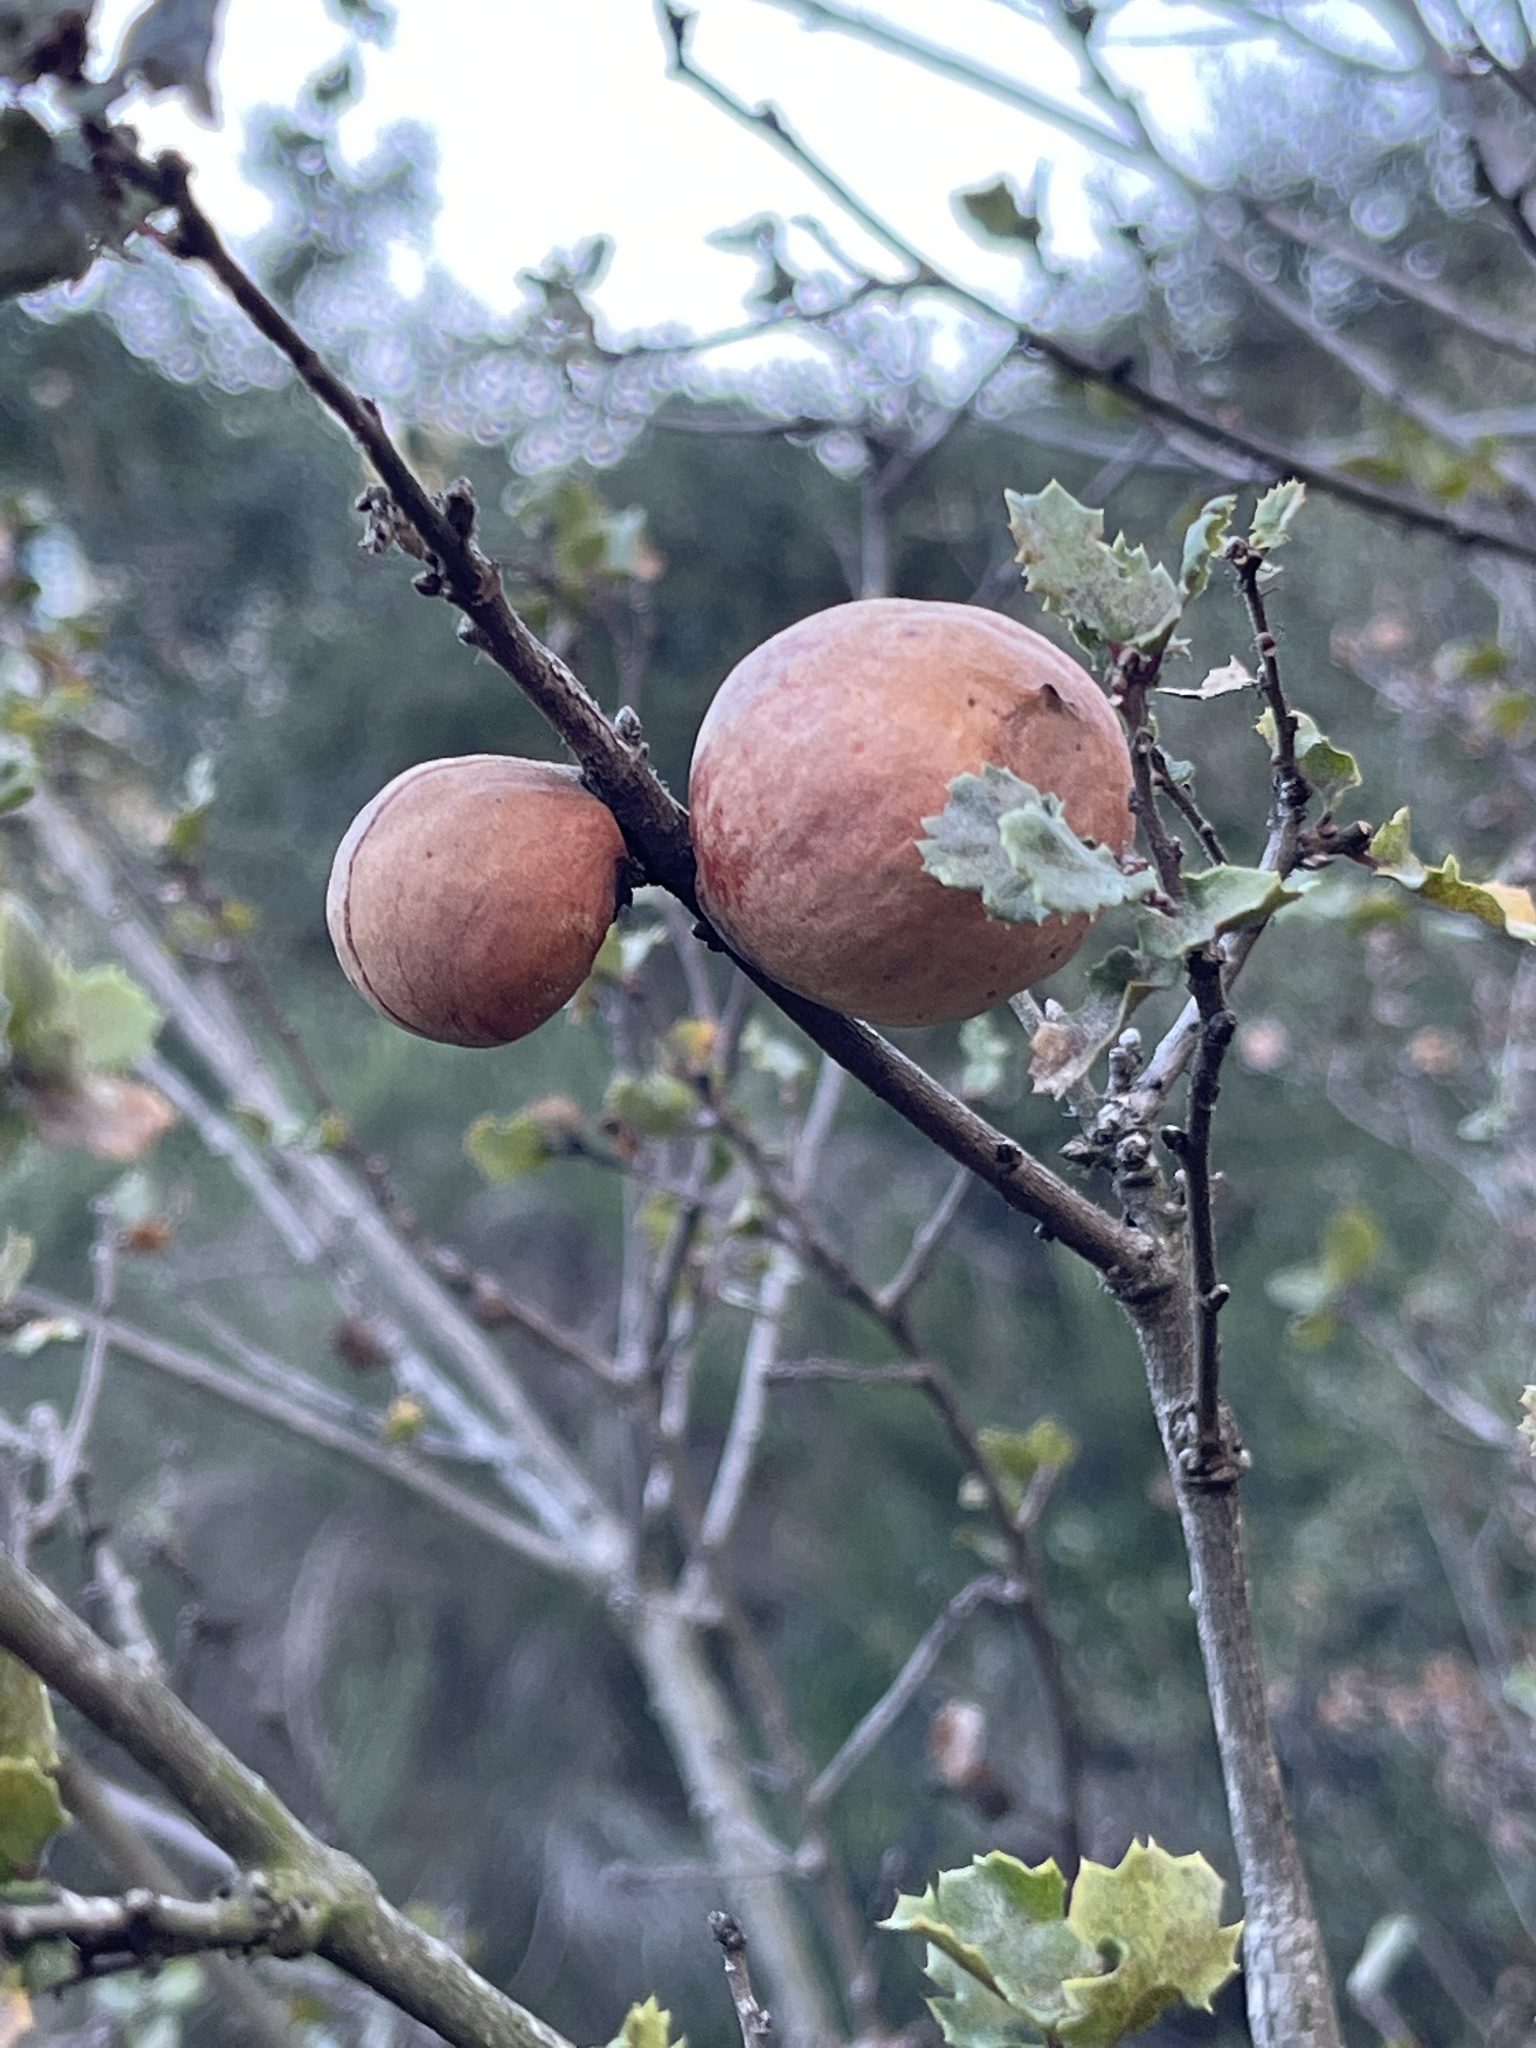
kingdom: Animalia
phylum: Arthropoda
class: Insecta
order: Hymenoptera
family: Cynipidae
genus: Andricus
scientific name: Andricus quercuscalifornicus
